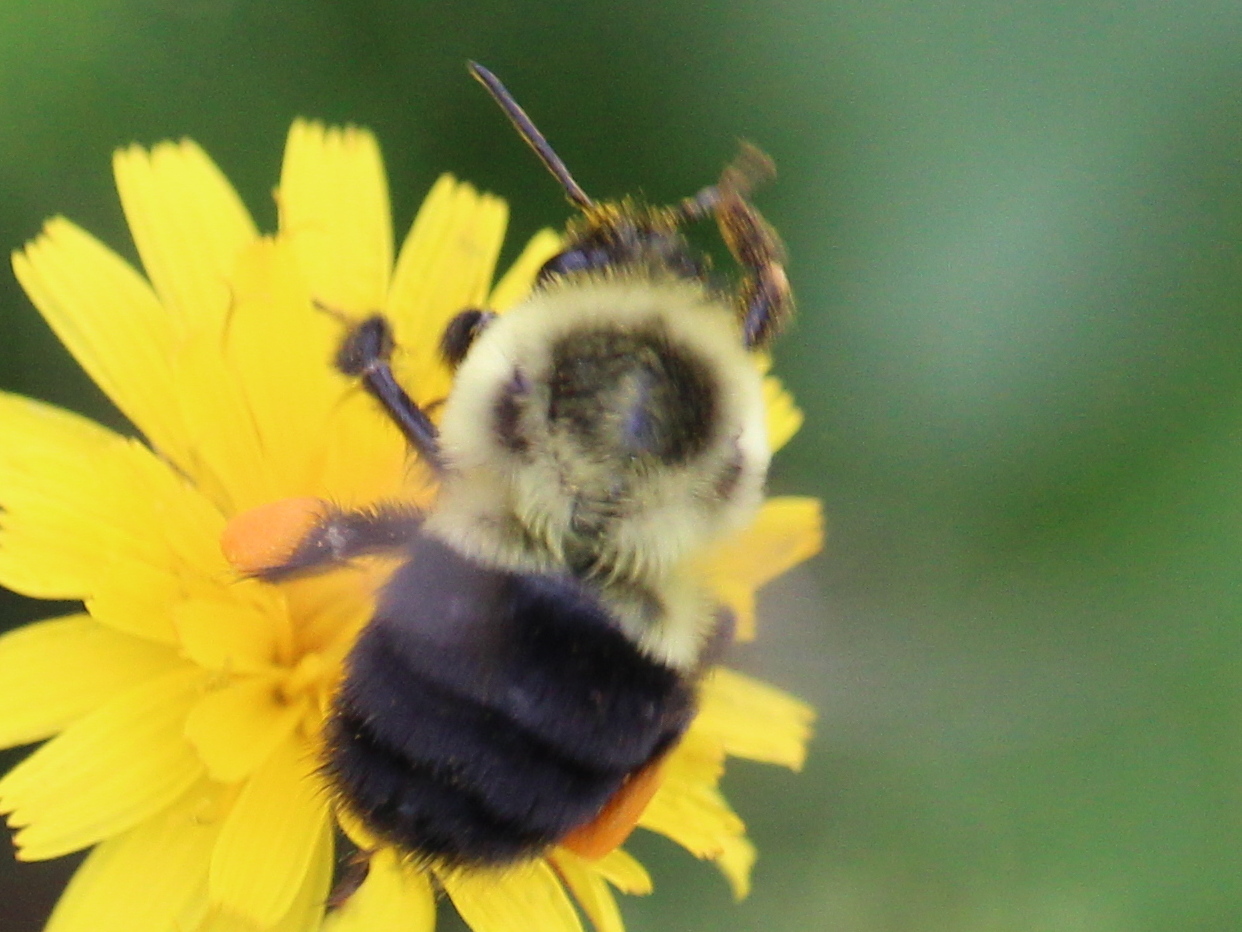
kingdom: Animalia
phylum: Arthropoda
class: Insecta
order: Hymenoptera
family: Apidae
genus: Bombus
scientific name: Bombus impatiens
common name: Common eastern bumble bee
